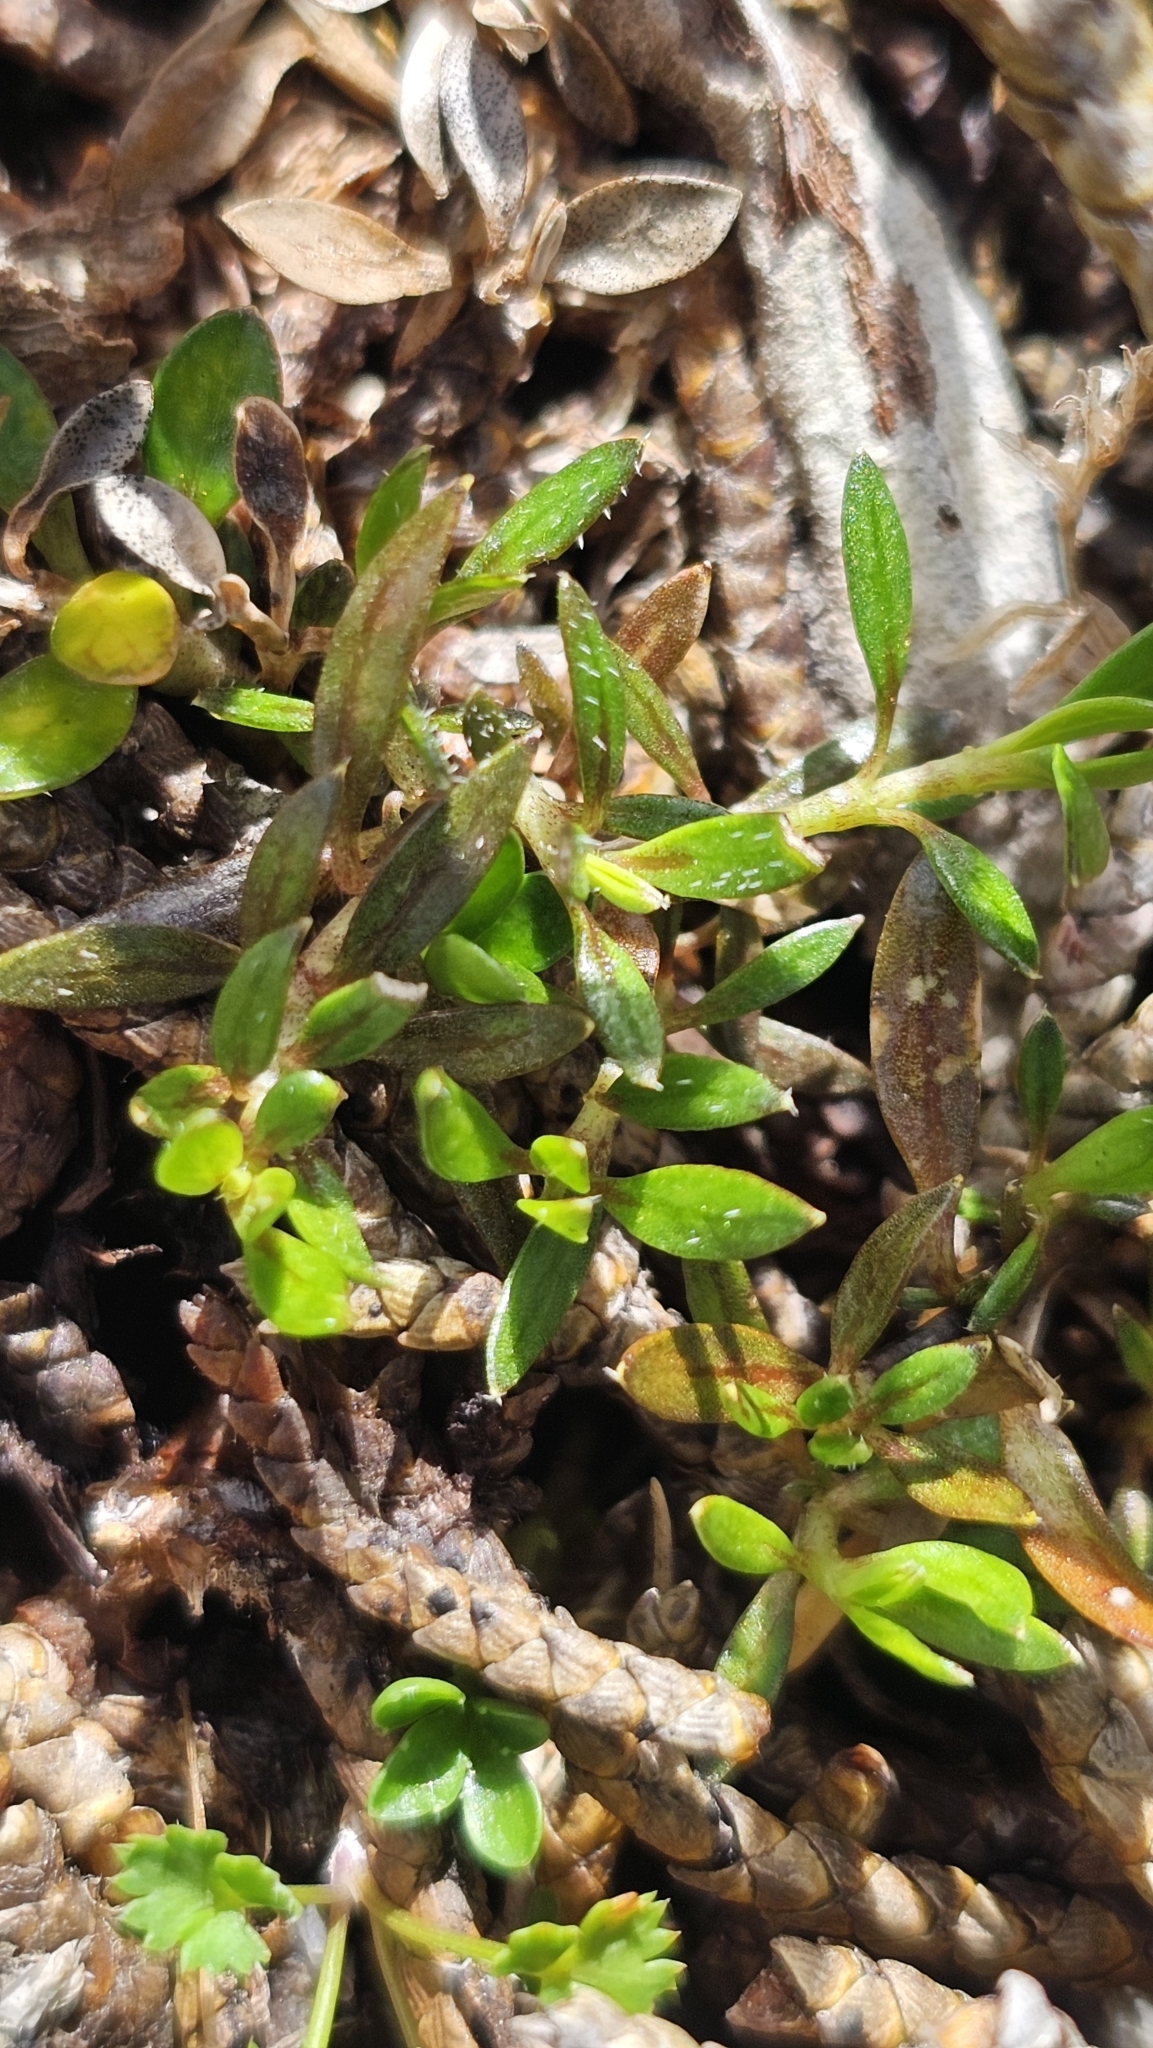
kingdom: Plantae
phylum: Tracheophyta
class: Magnoliopsida
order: Gentianales
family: Rubiaceae
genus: Coprosma
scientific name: Coprosma atropurpurea
